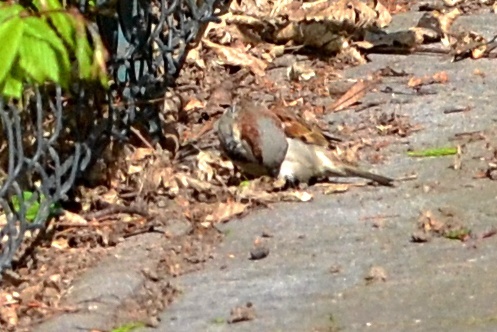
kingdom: Animalia
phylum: Chordata
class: Aves
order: Passeriformes
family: Passeridae
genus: Passer
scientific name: Passer domesticus
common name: House sparrow
